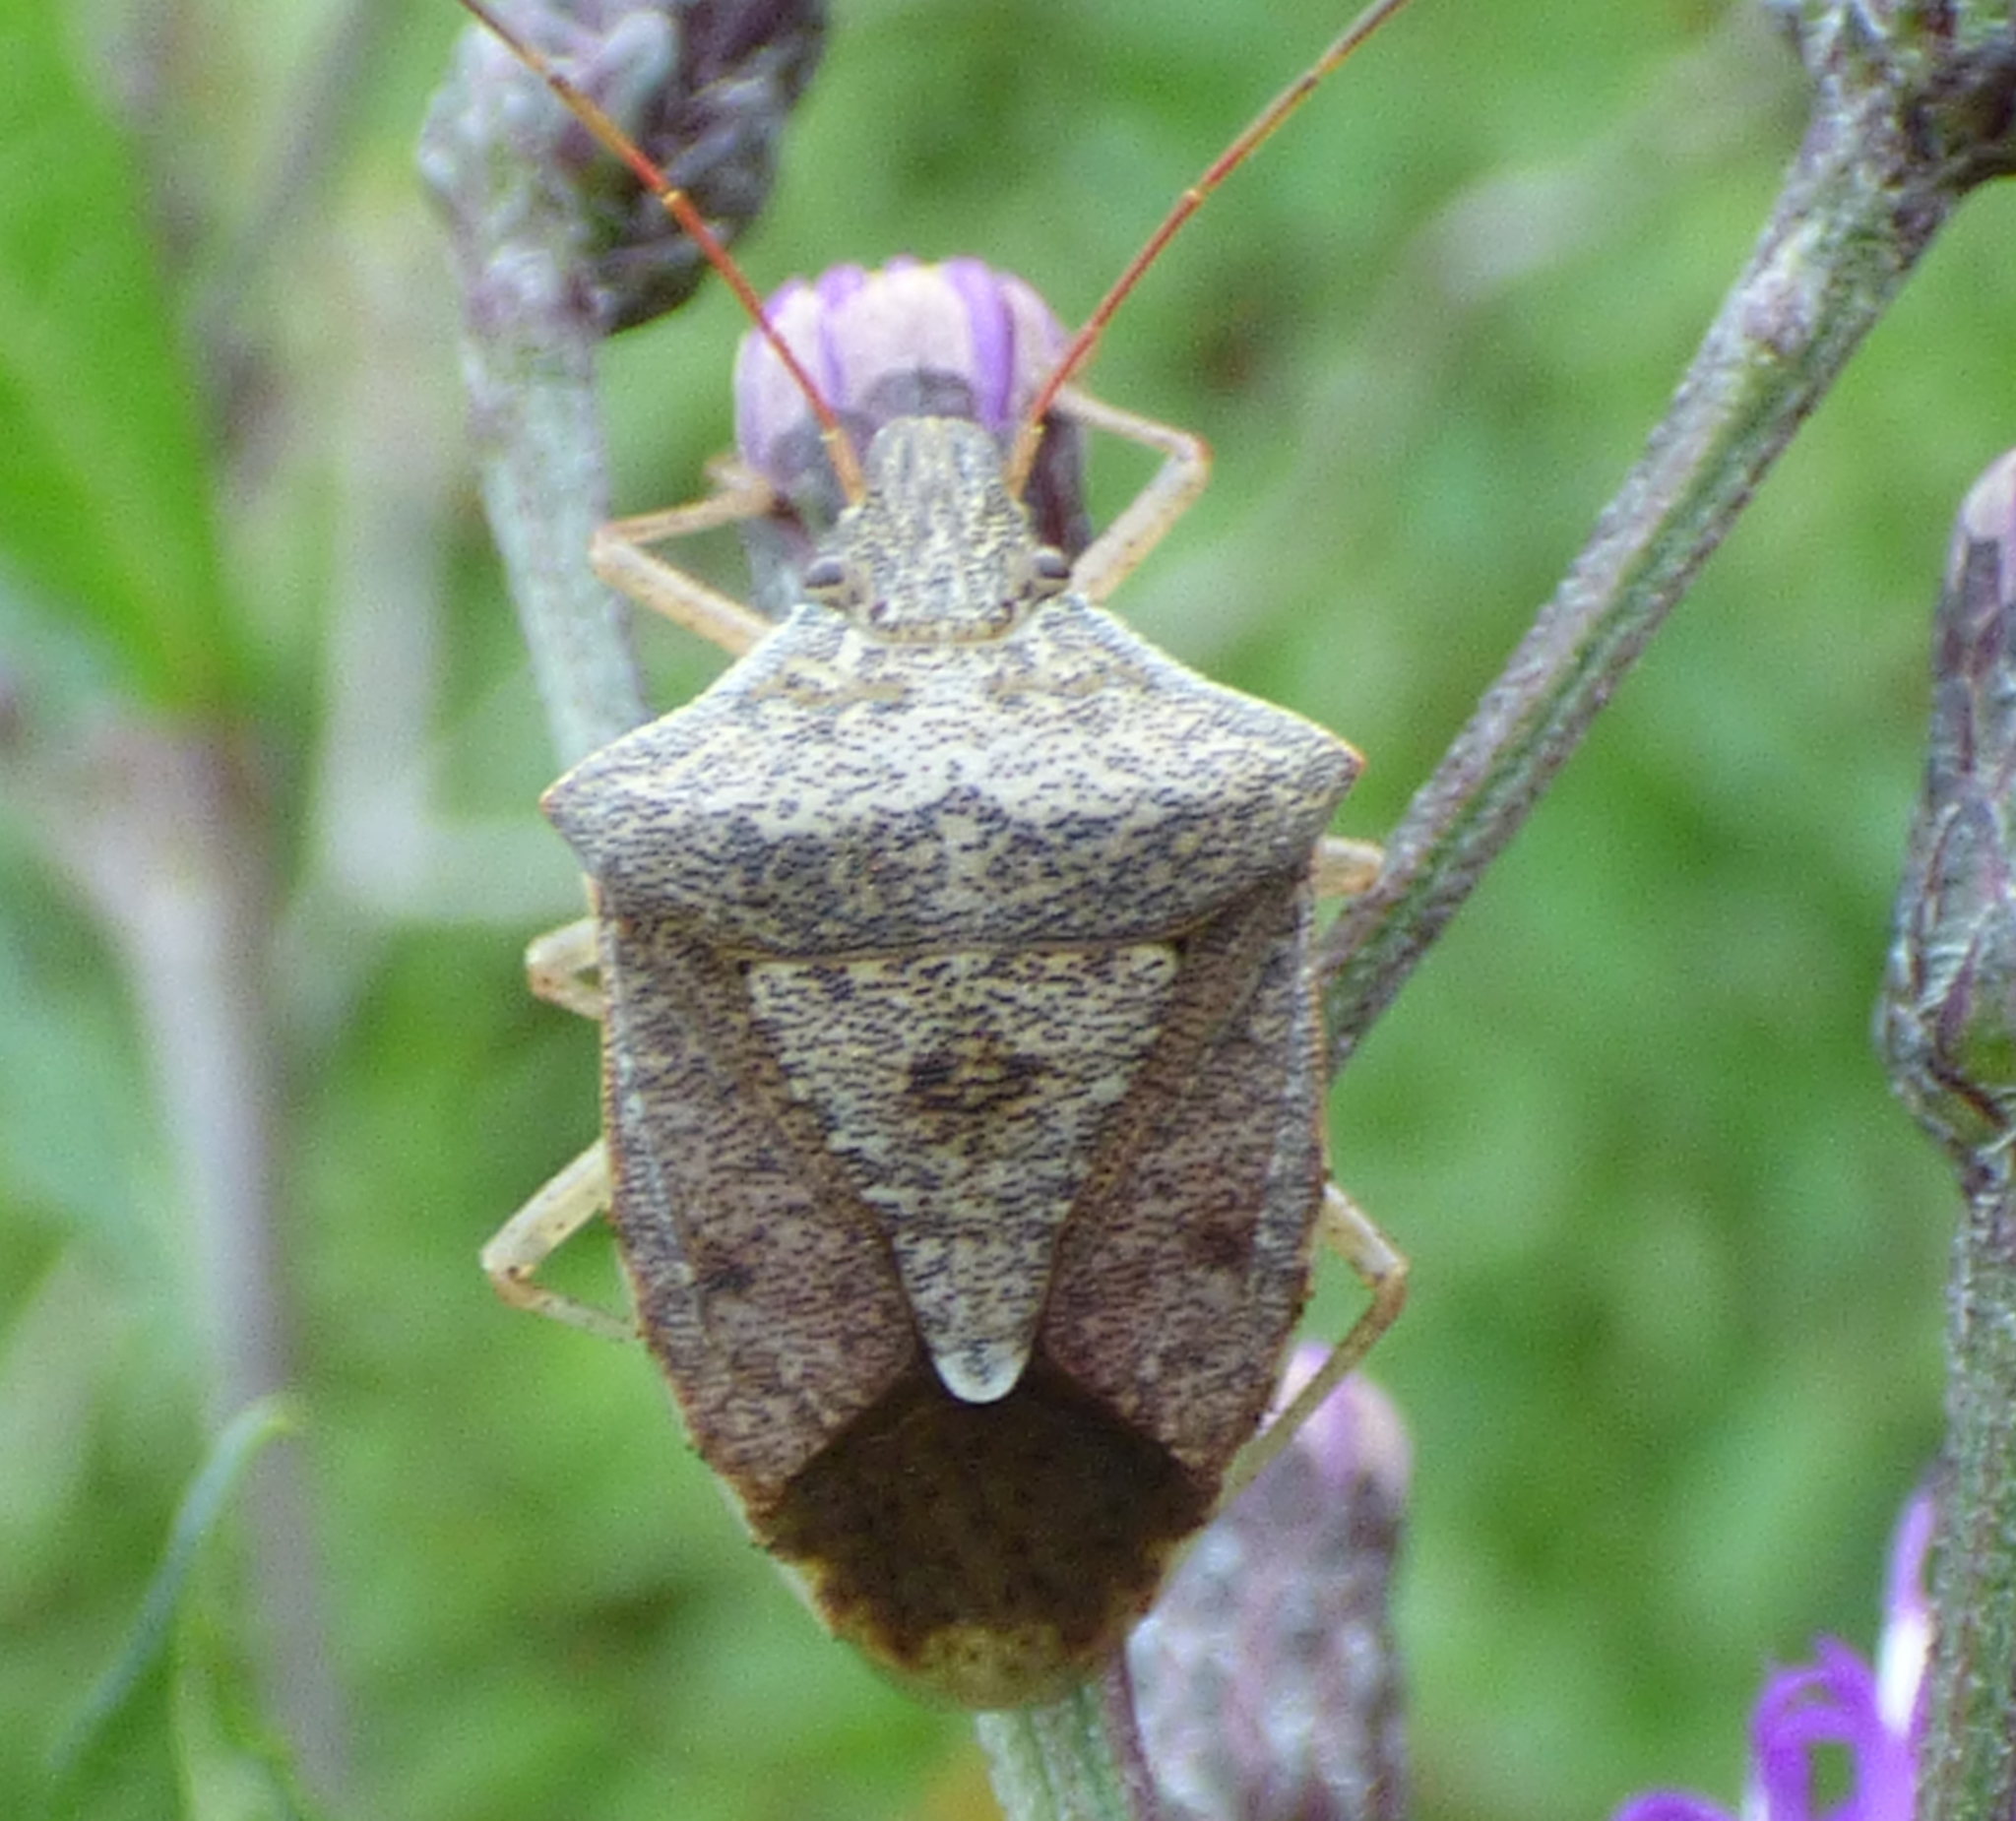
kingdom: Animalia
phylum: Arthropoda
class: Insecta
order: Hemiptera
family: Pentatomidae
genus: Euschistus
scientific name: Euschistus servus
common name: Brown stink bug
